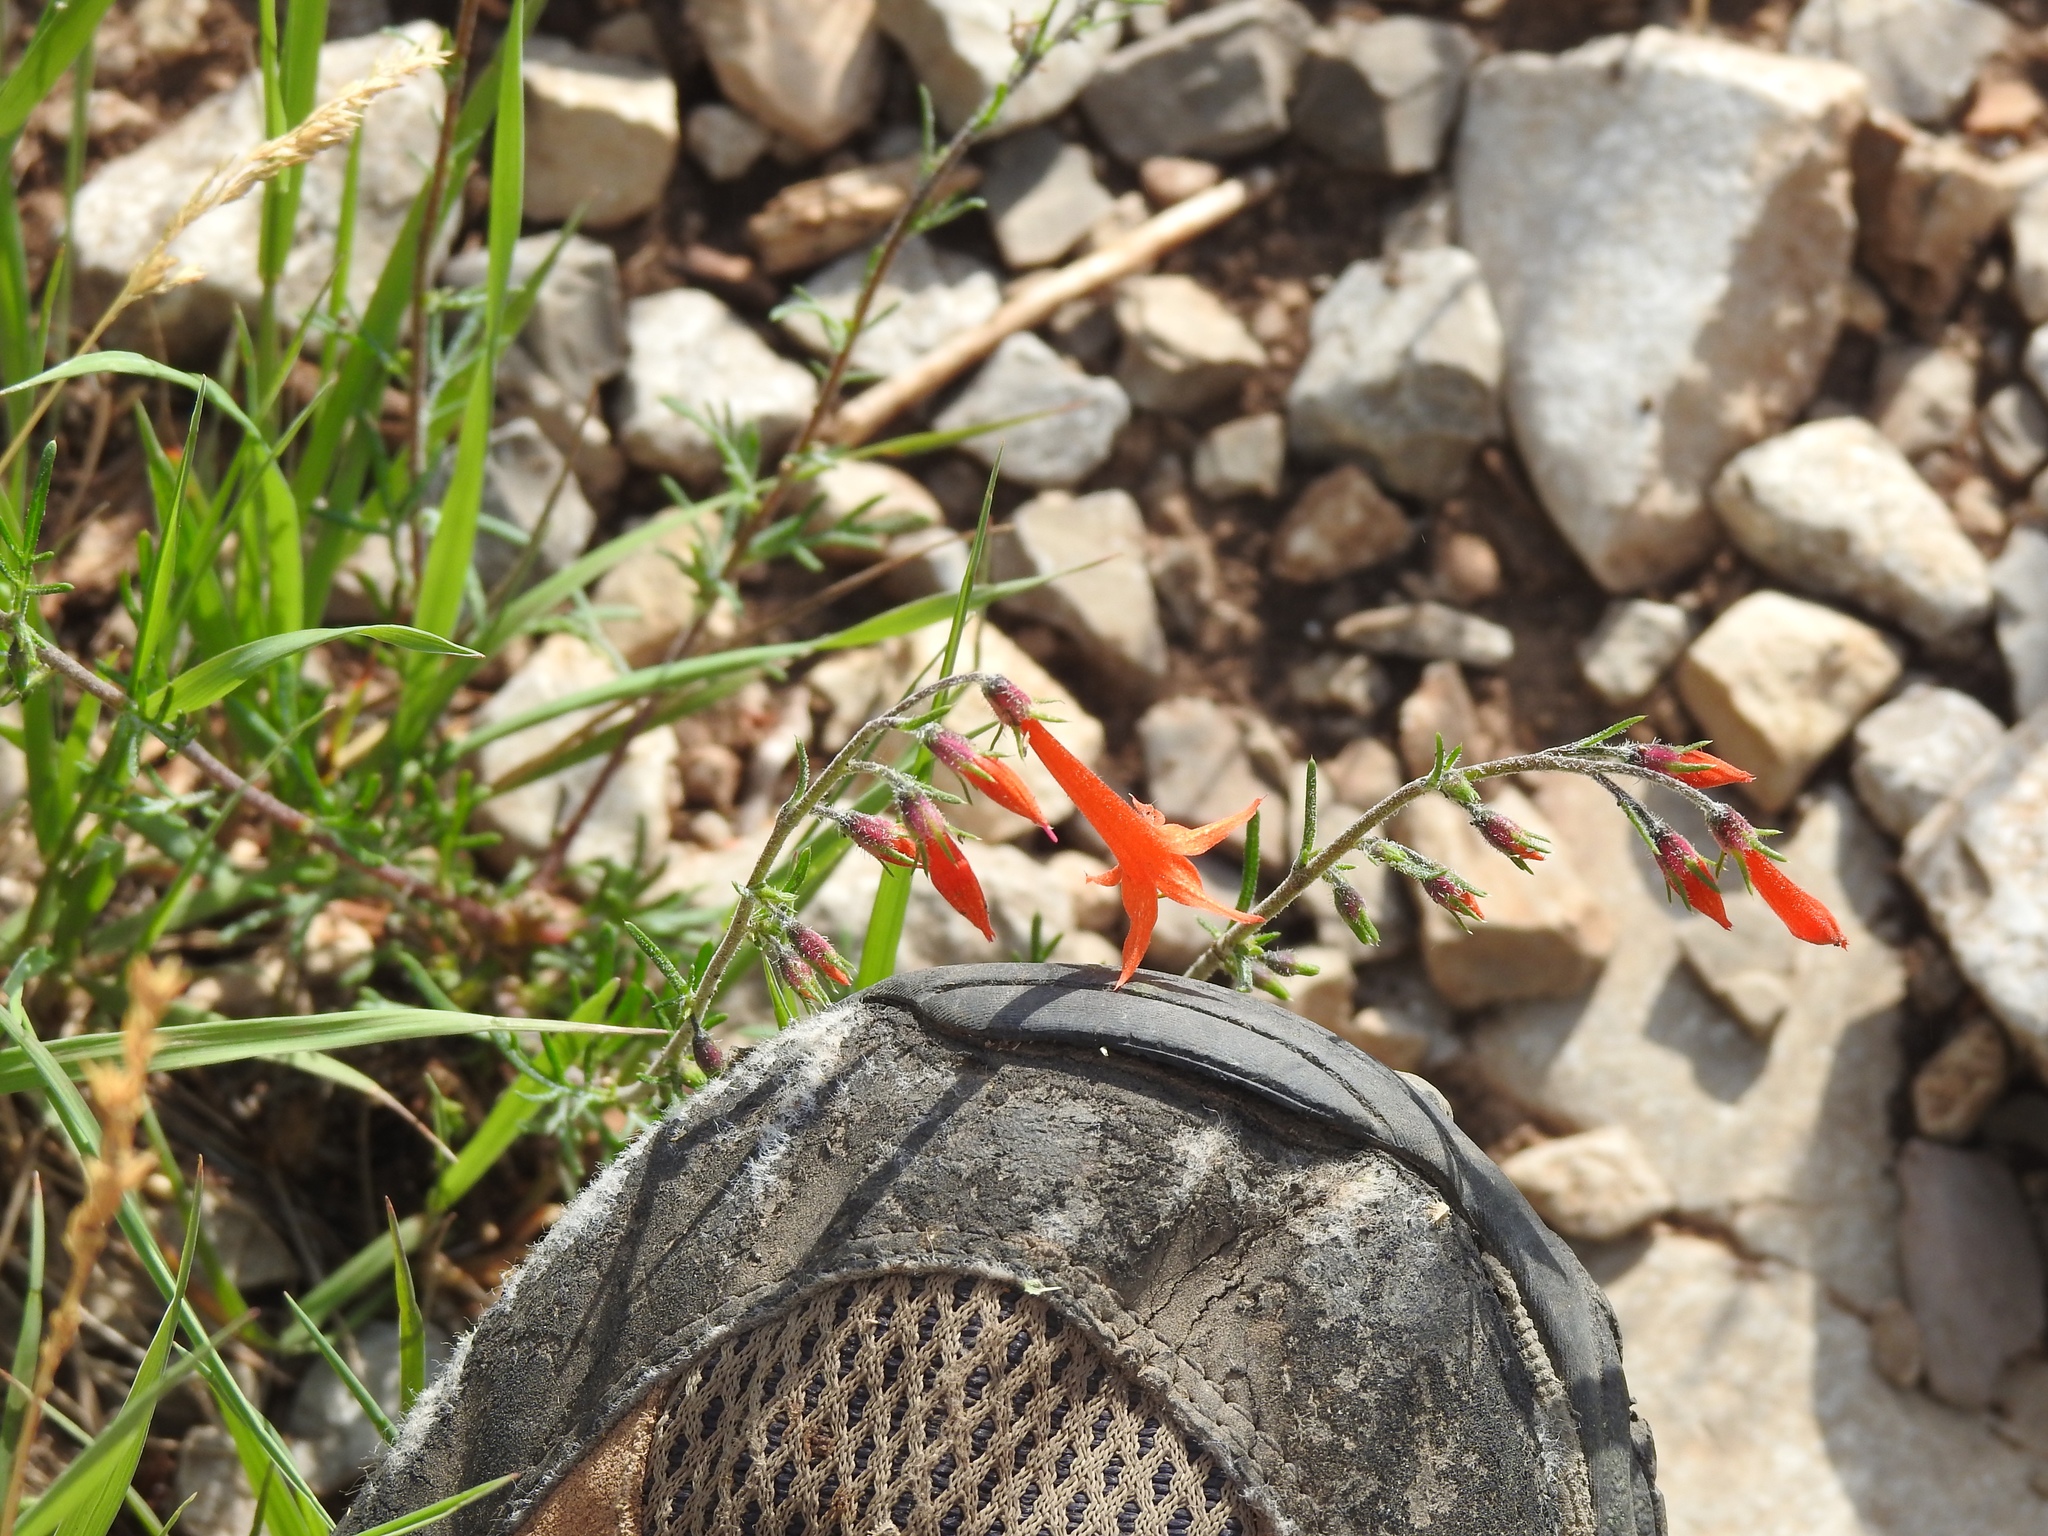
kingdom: Plantae
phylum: Tracheophyta
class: Magnoliopsida
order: Ericales
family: Polemoniaceae
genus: Ipomopsis
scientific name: Ipomopsis aggregata
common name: Scarlet gilia
